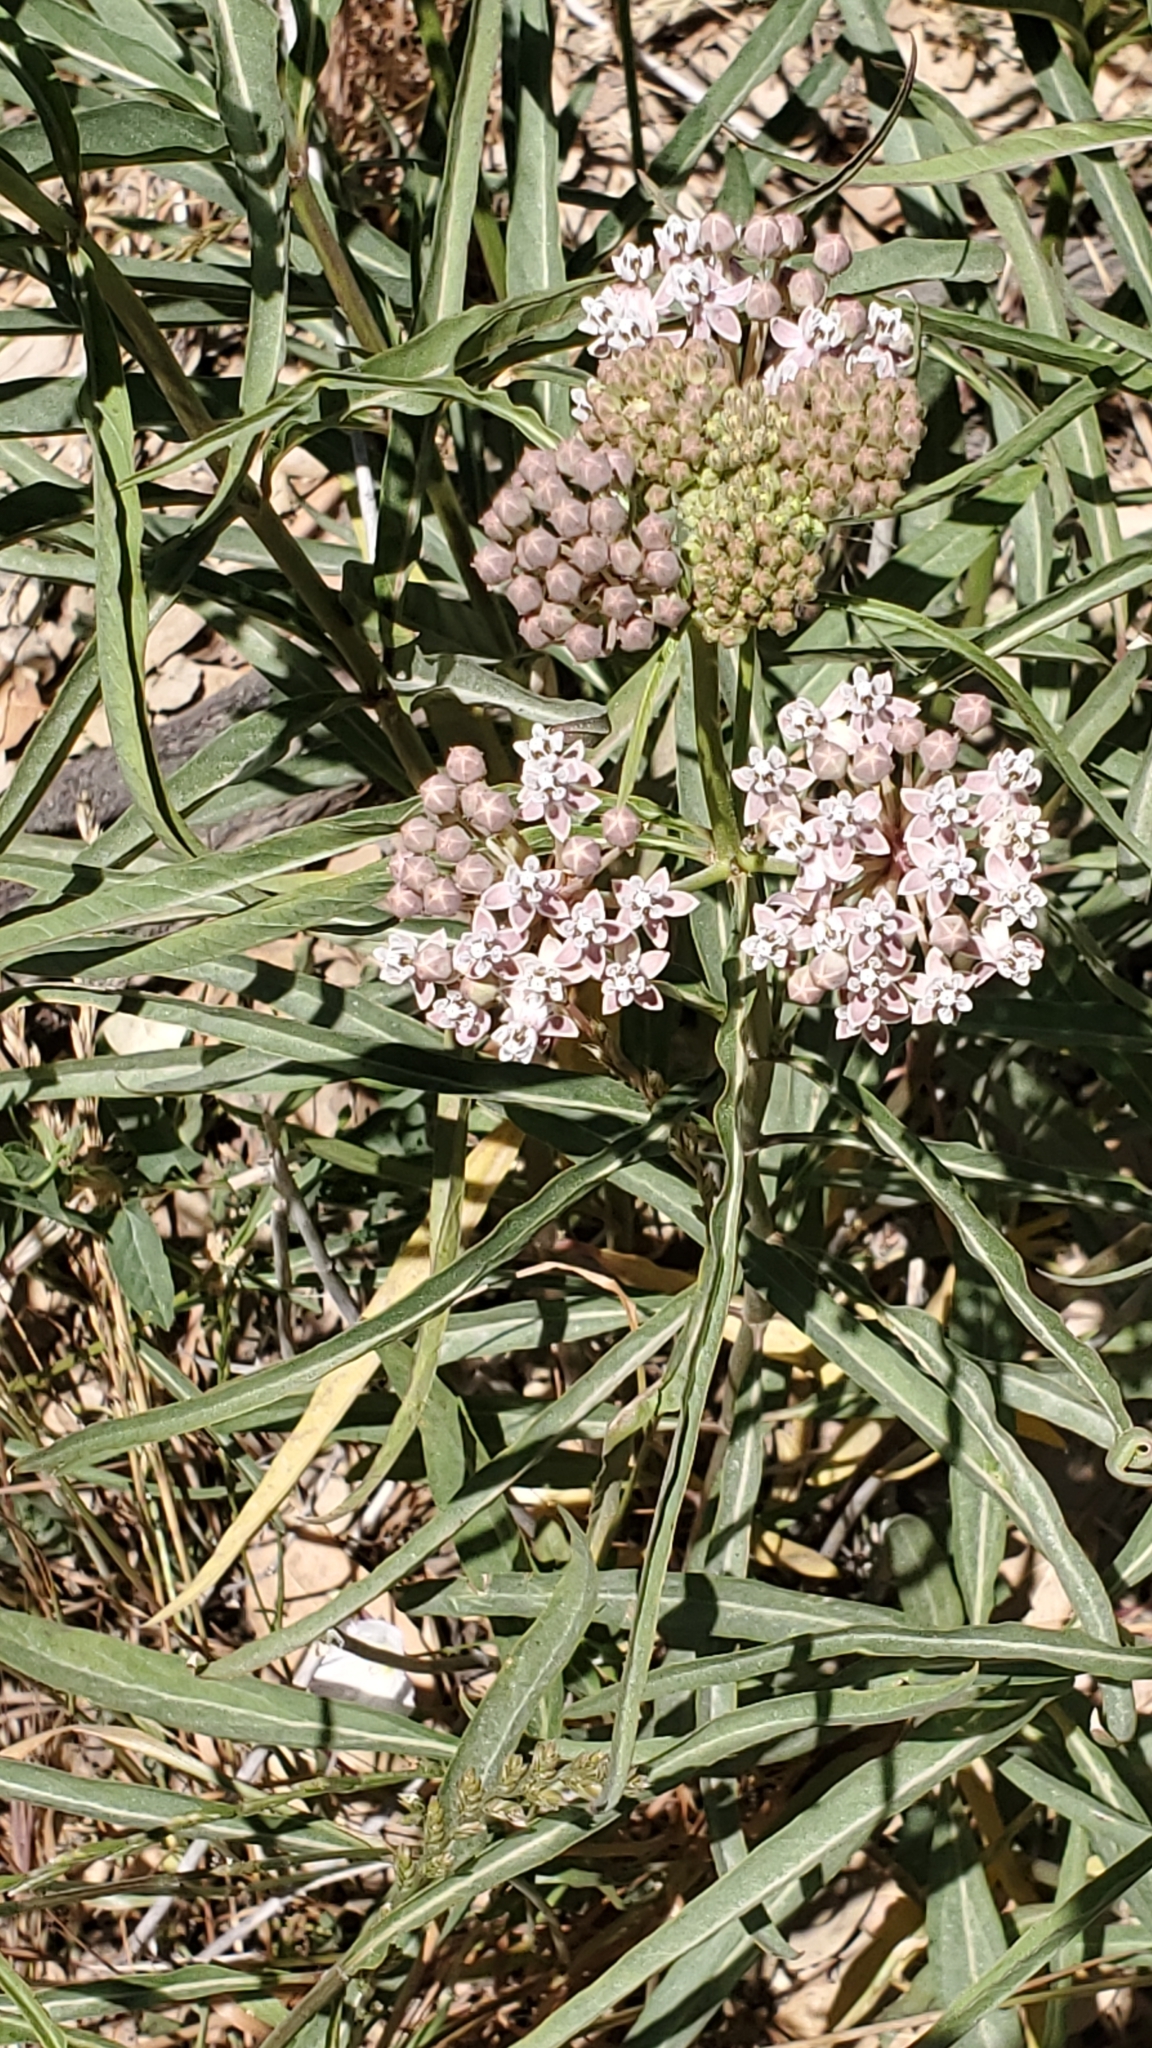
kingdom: Plantae
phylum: Tracheophyta
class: Magnoliopsida
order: Gentianales
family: Apocynaceae
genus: Asclepias
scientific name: Asclepias fascicularis
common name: Mexican milkweed
